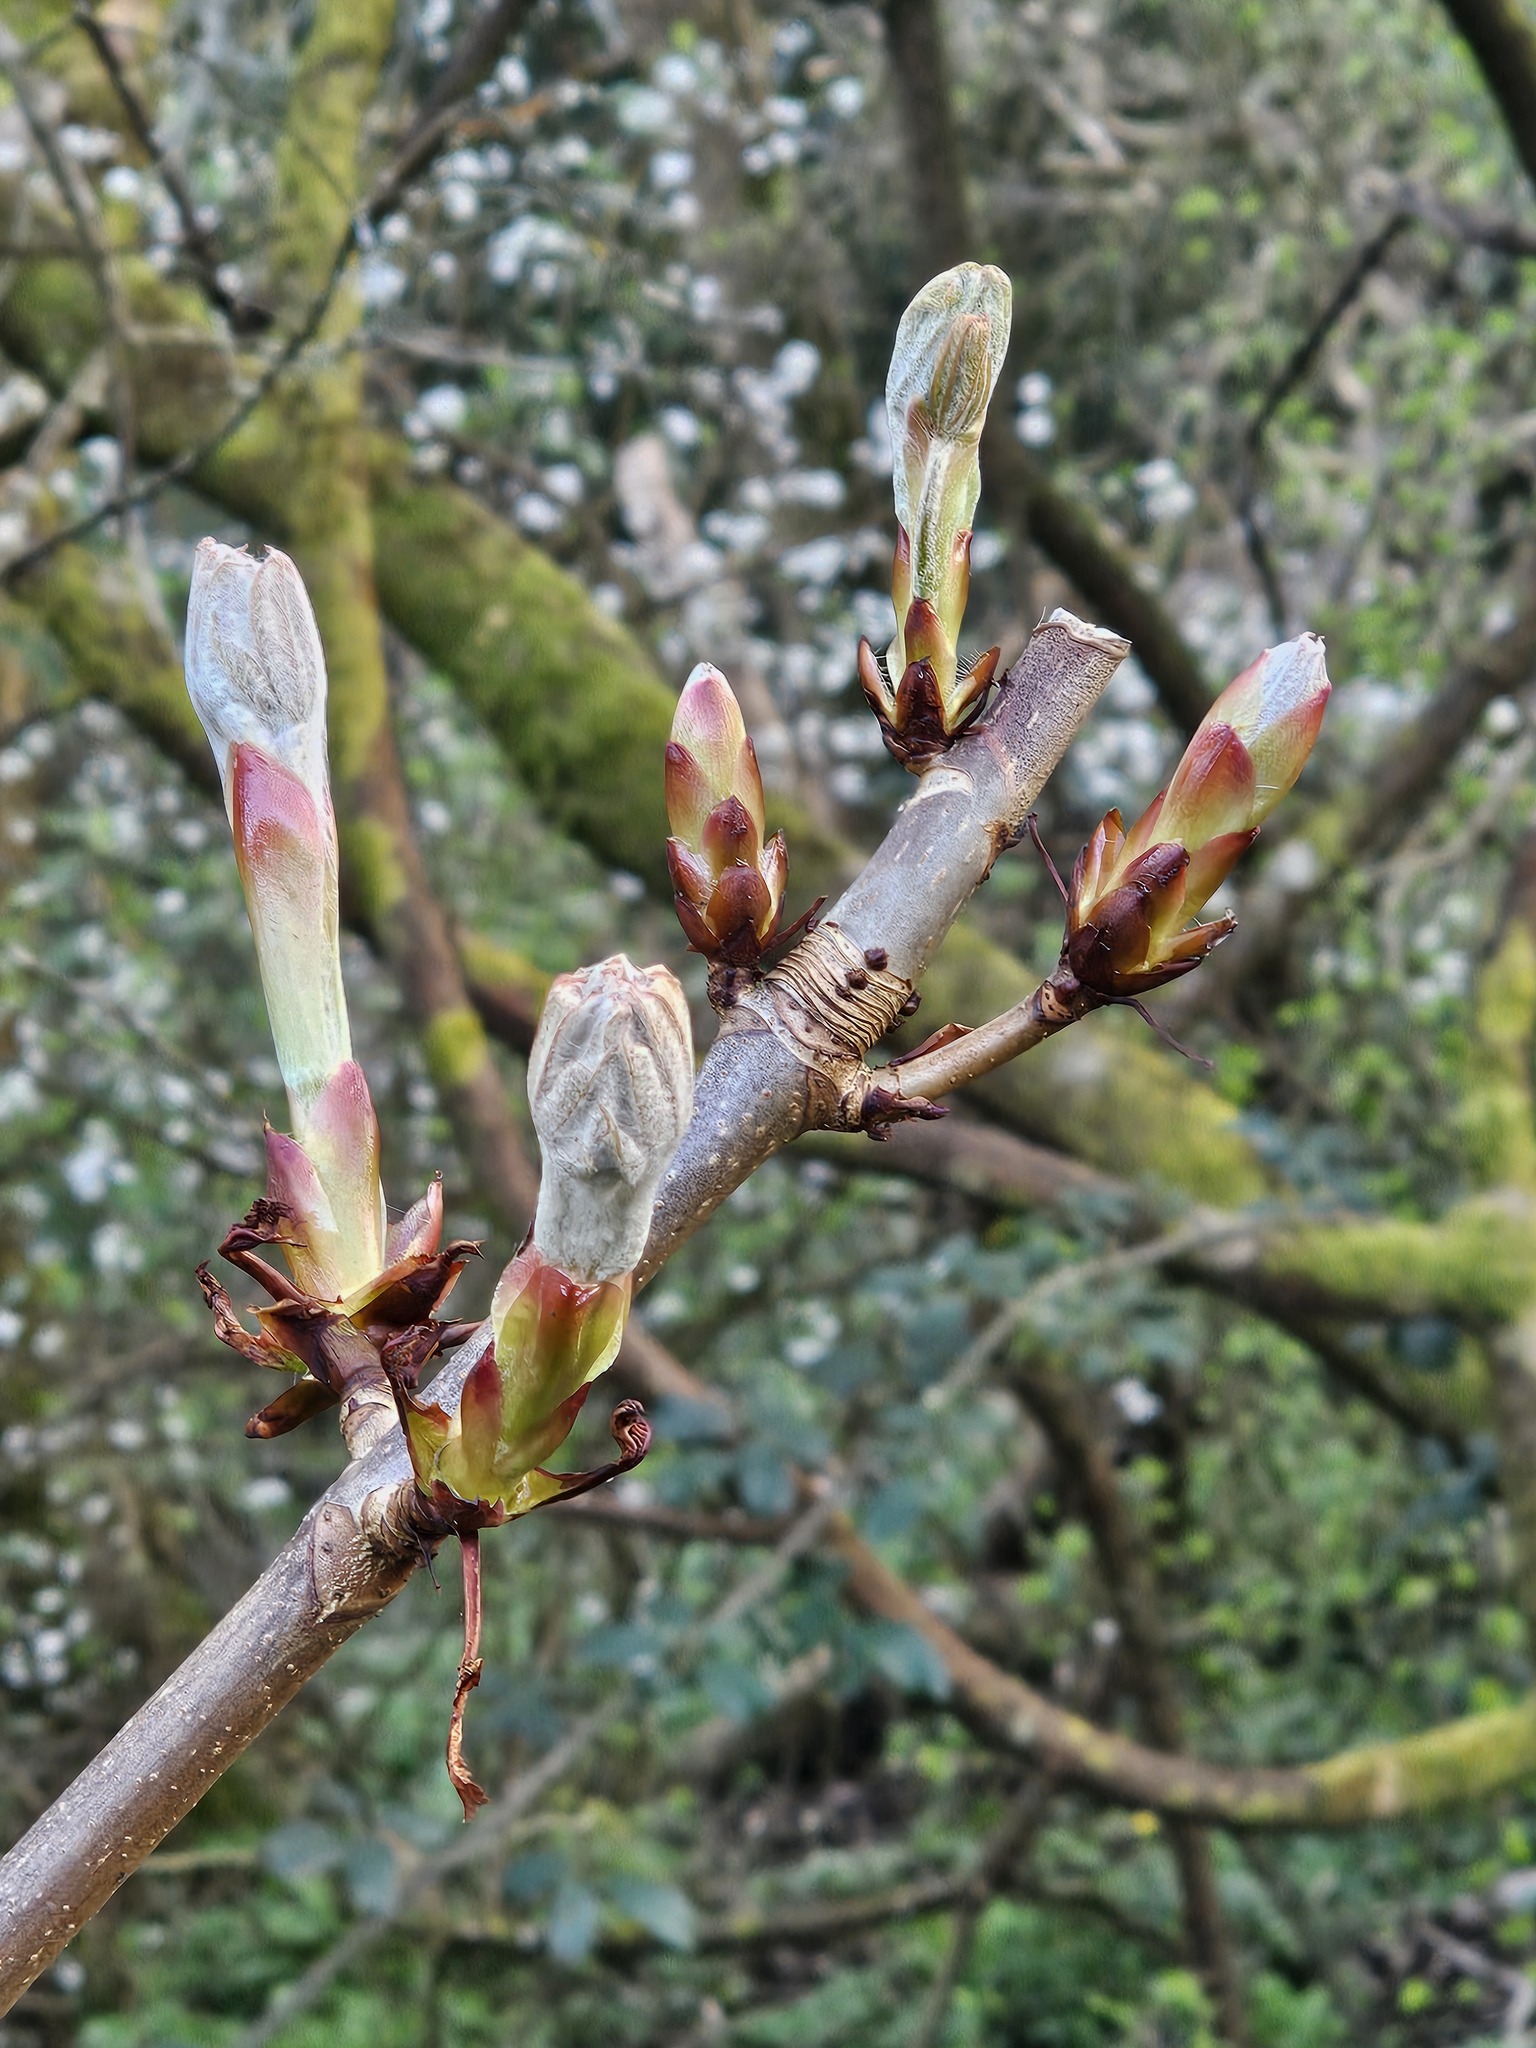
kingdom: Plantae
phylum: Tracheophyta
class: Magnoliopsida
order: Sapindales
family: Sapindaceae
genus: Aesculus
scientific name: Aesculus hippocastanum
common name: Horse-chestnut
